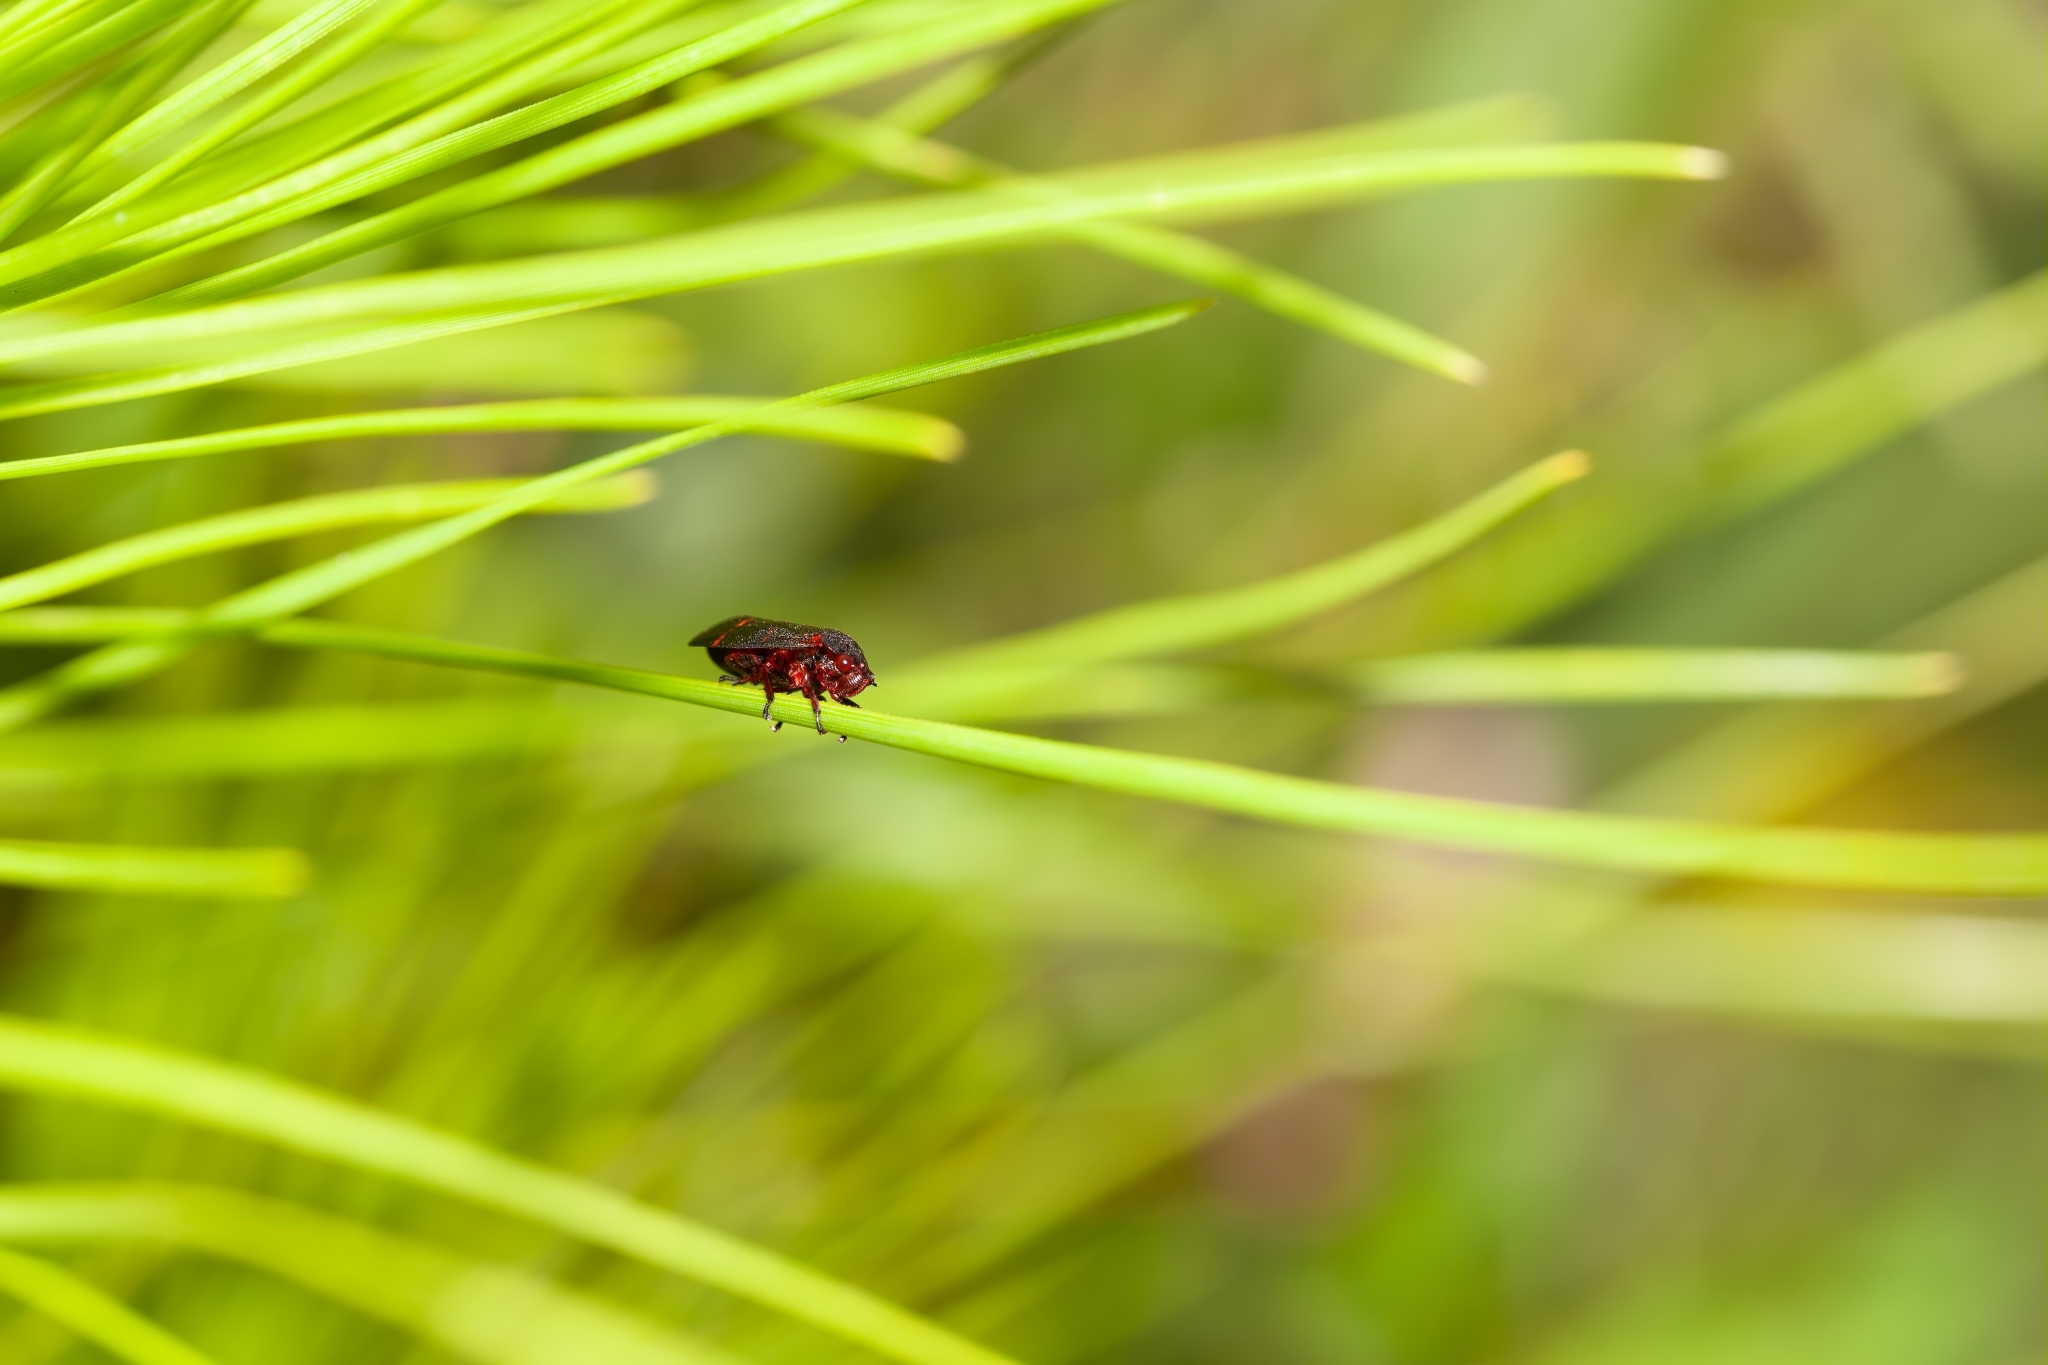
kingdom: Animalia
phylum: Arthropoda
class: Insecta
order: Hemiptera
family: Cercopidae
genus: Prosapia
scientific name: Prosapia bicincta
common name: Twolined spittlebug
